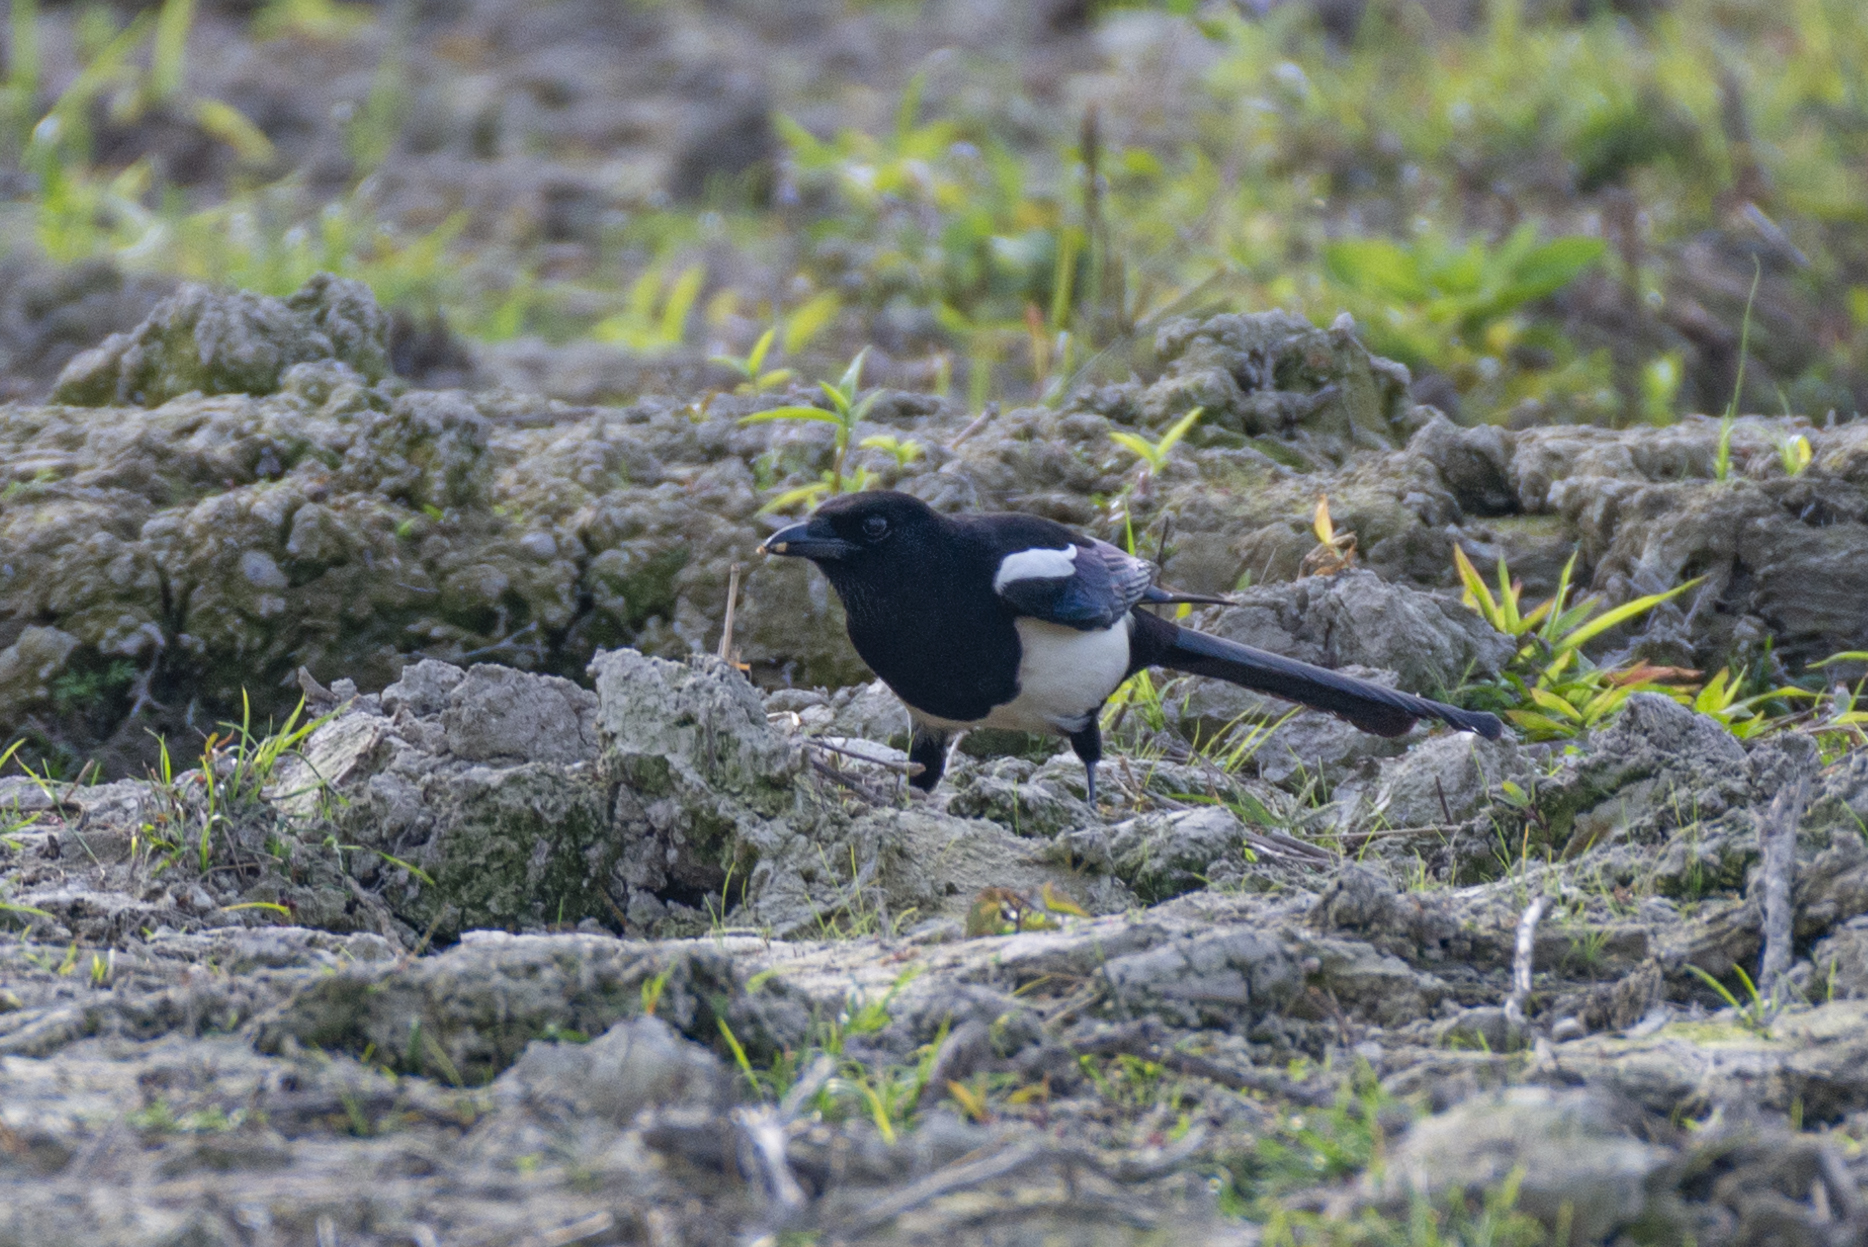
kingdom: Animalia
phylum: Chordata
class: Aves
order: Passeriformes
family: Corvidae
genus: Pica
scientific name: Pica serica
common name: Oriental magpie
